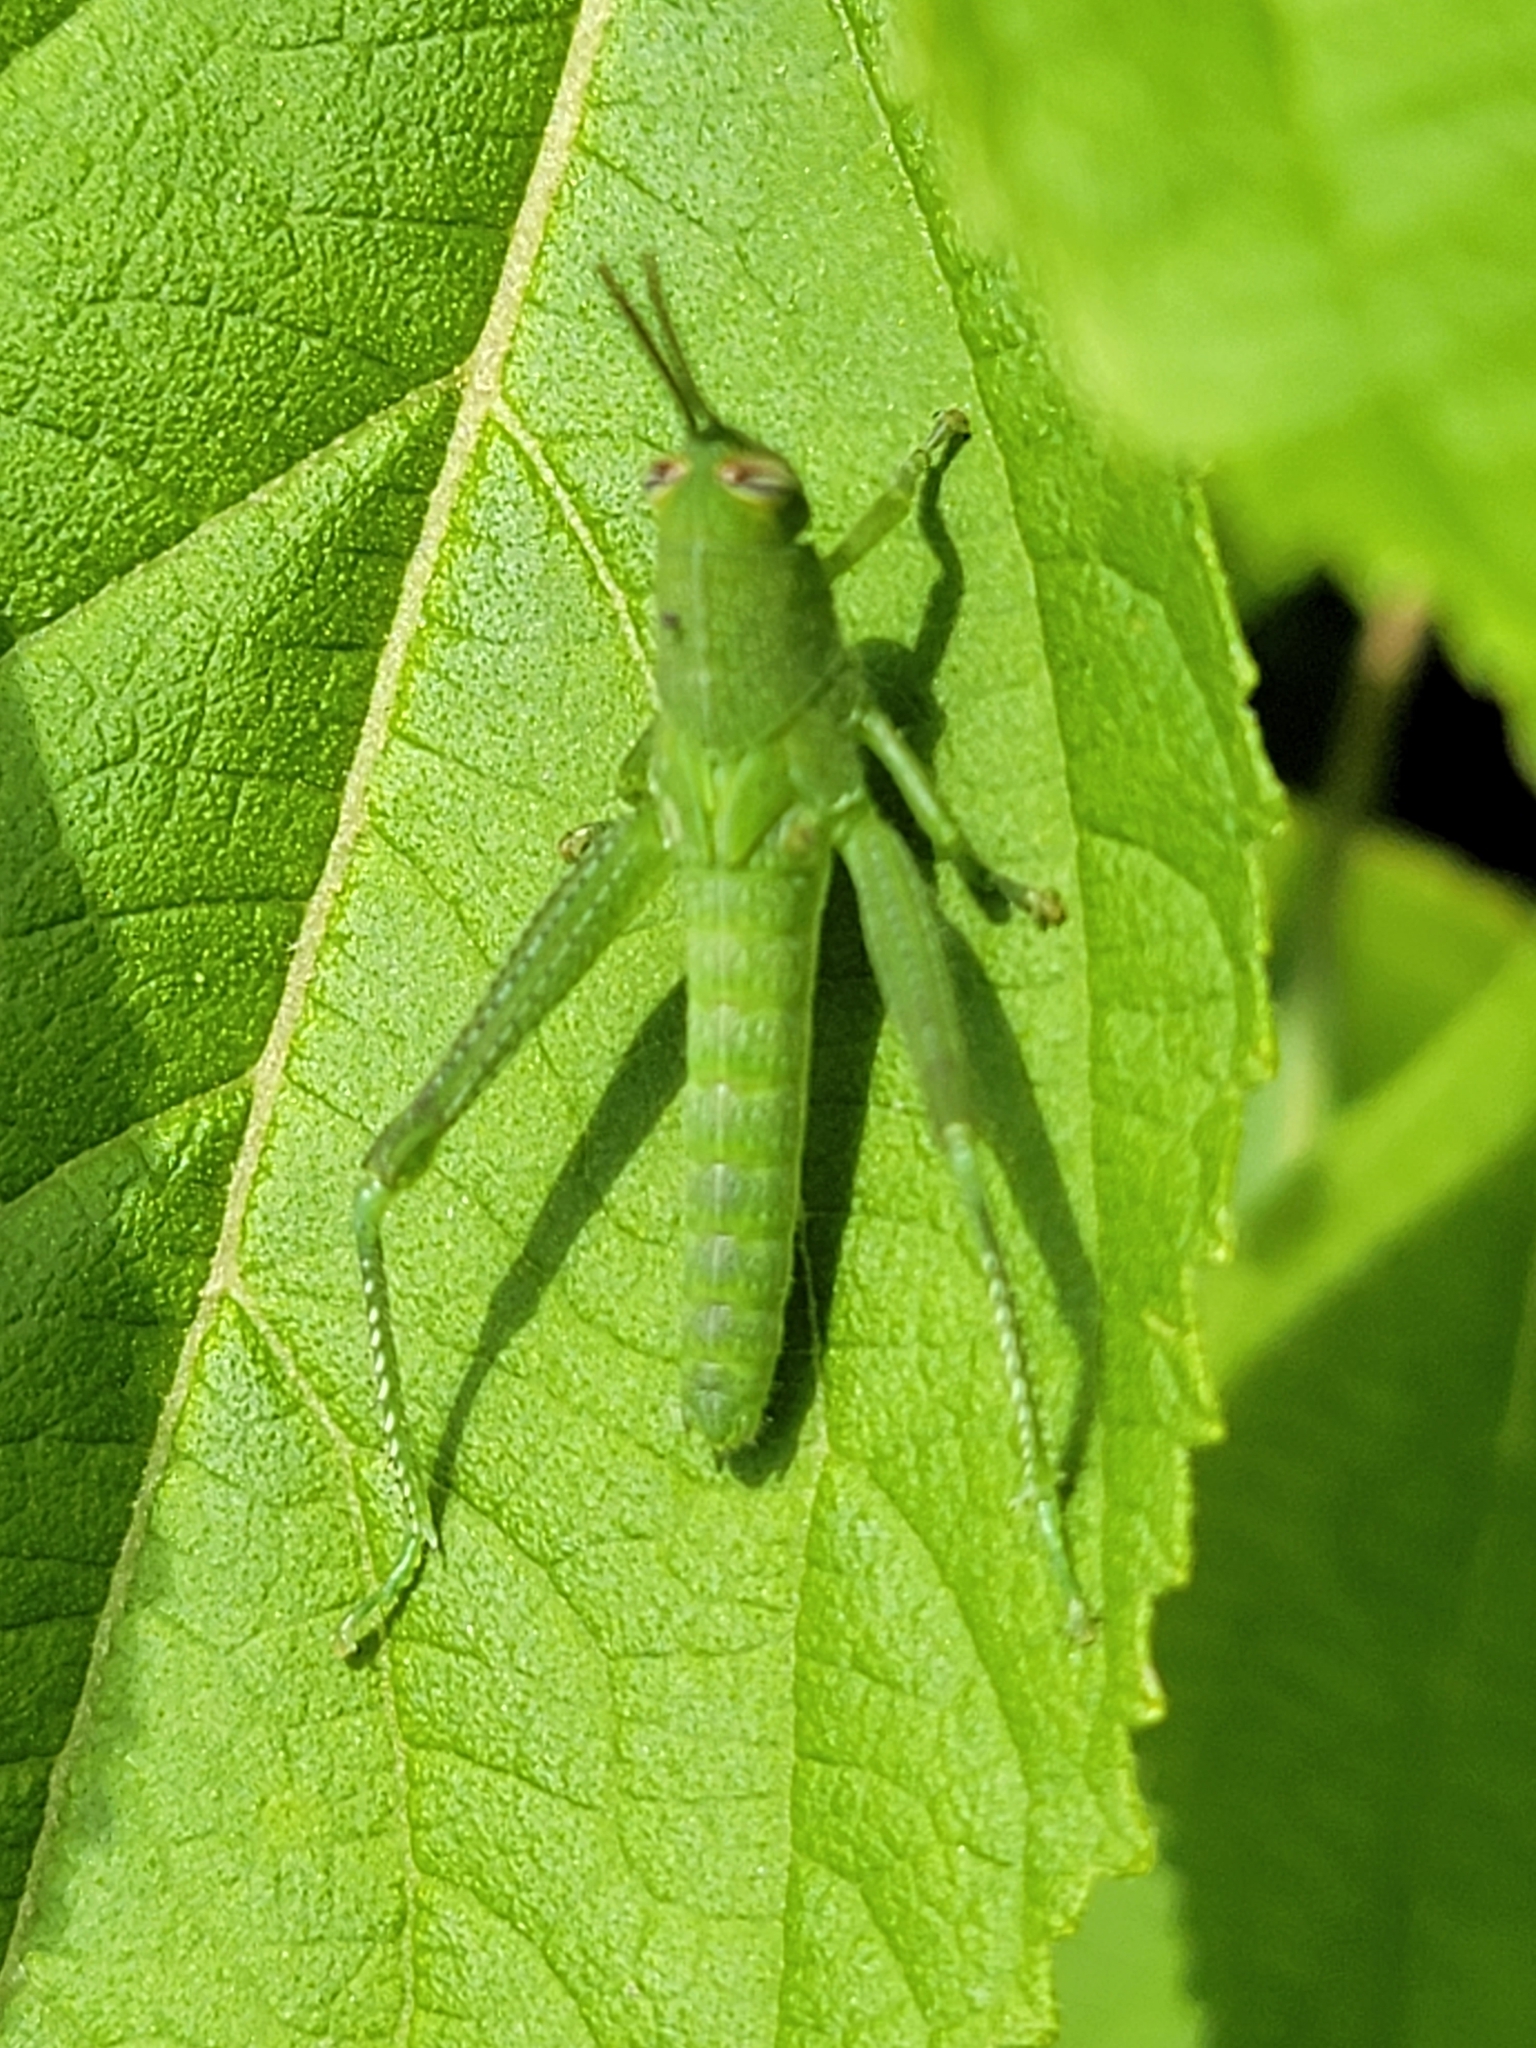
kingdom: Animalia
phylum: Arthropoda
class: Insecta
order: Orthoptera
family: Acrididae
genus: Schistocerca
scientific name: Schistocerca obscura
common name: Obscure bird grasshopper
